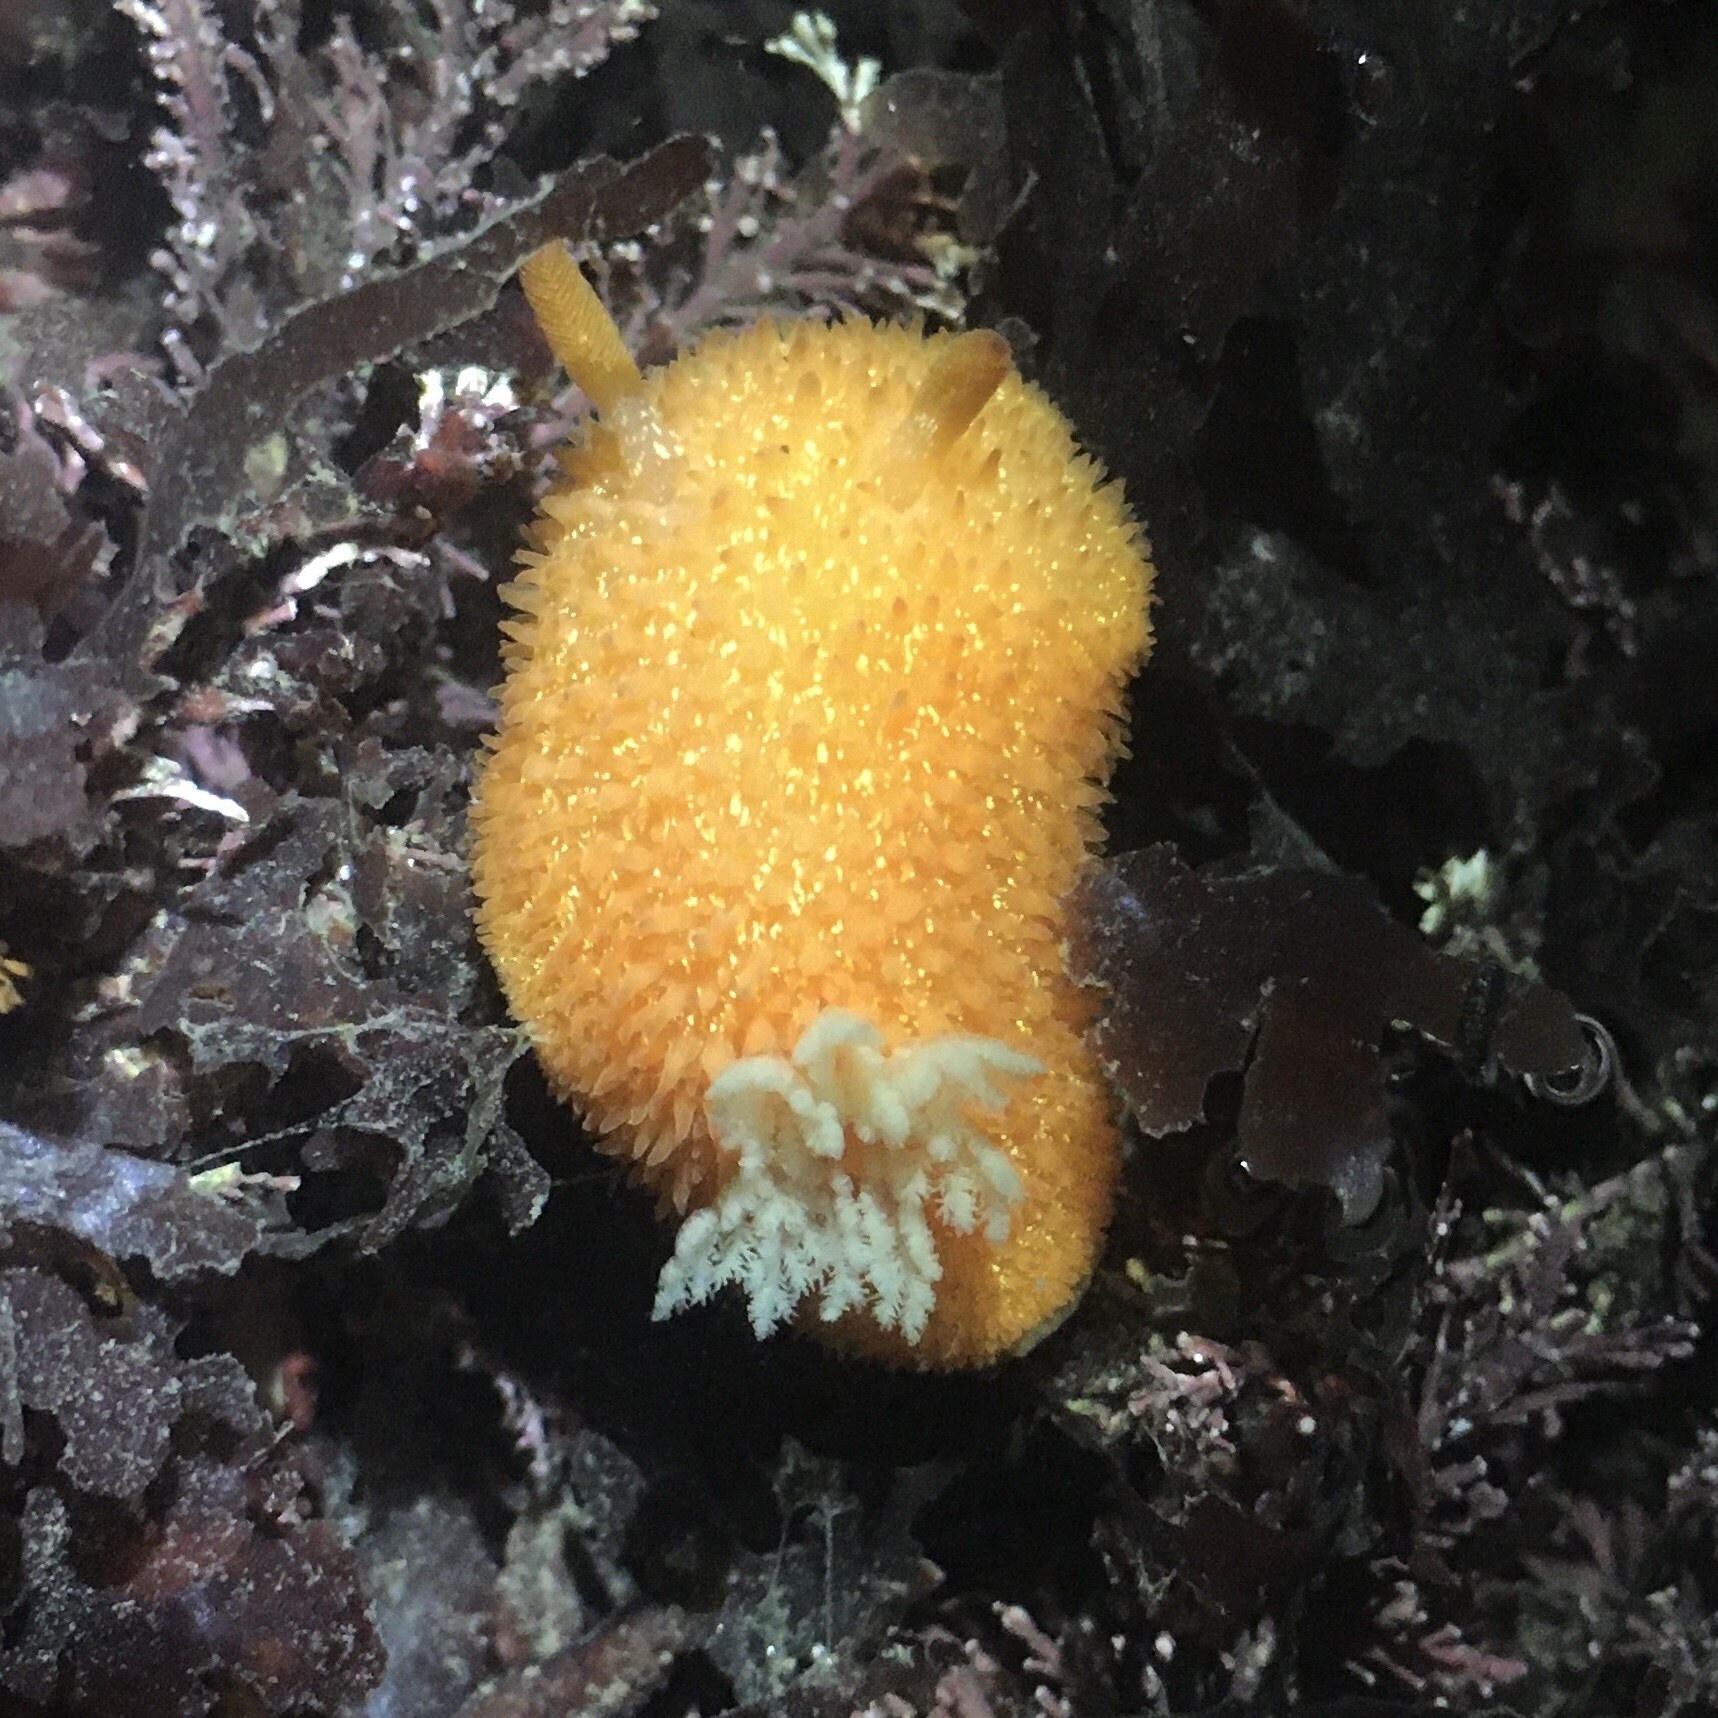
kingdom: Animalia
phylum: Mollusca
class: Gastropoda
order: Nudibranchia
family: Onchidorididae
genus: Acanthodoris
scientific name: Acanthodoris lutea
